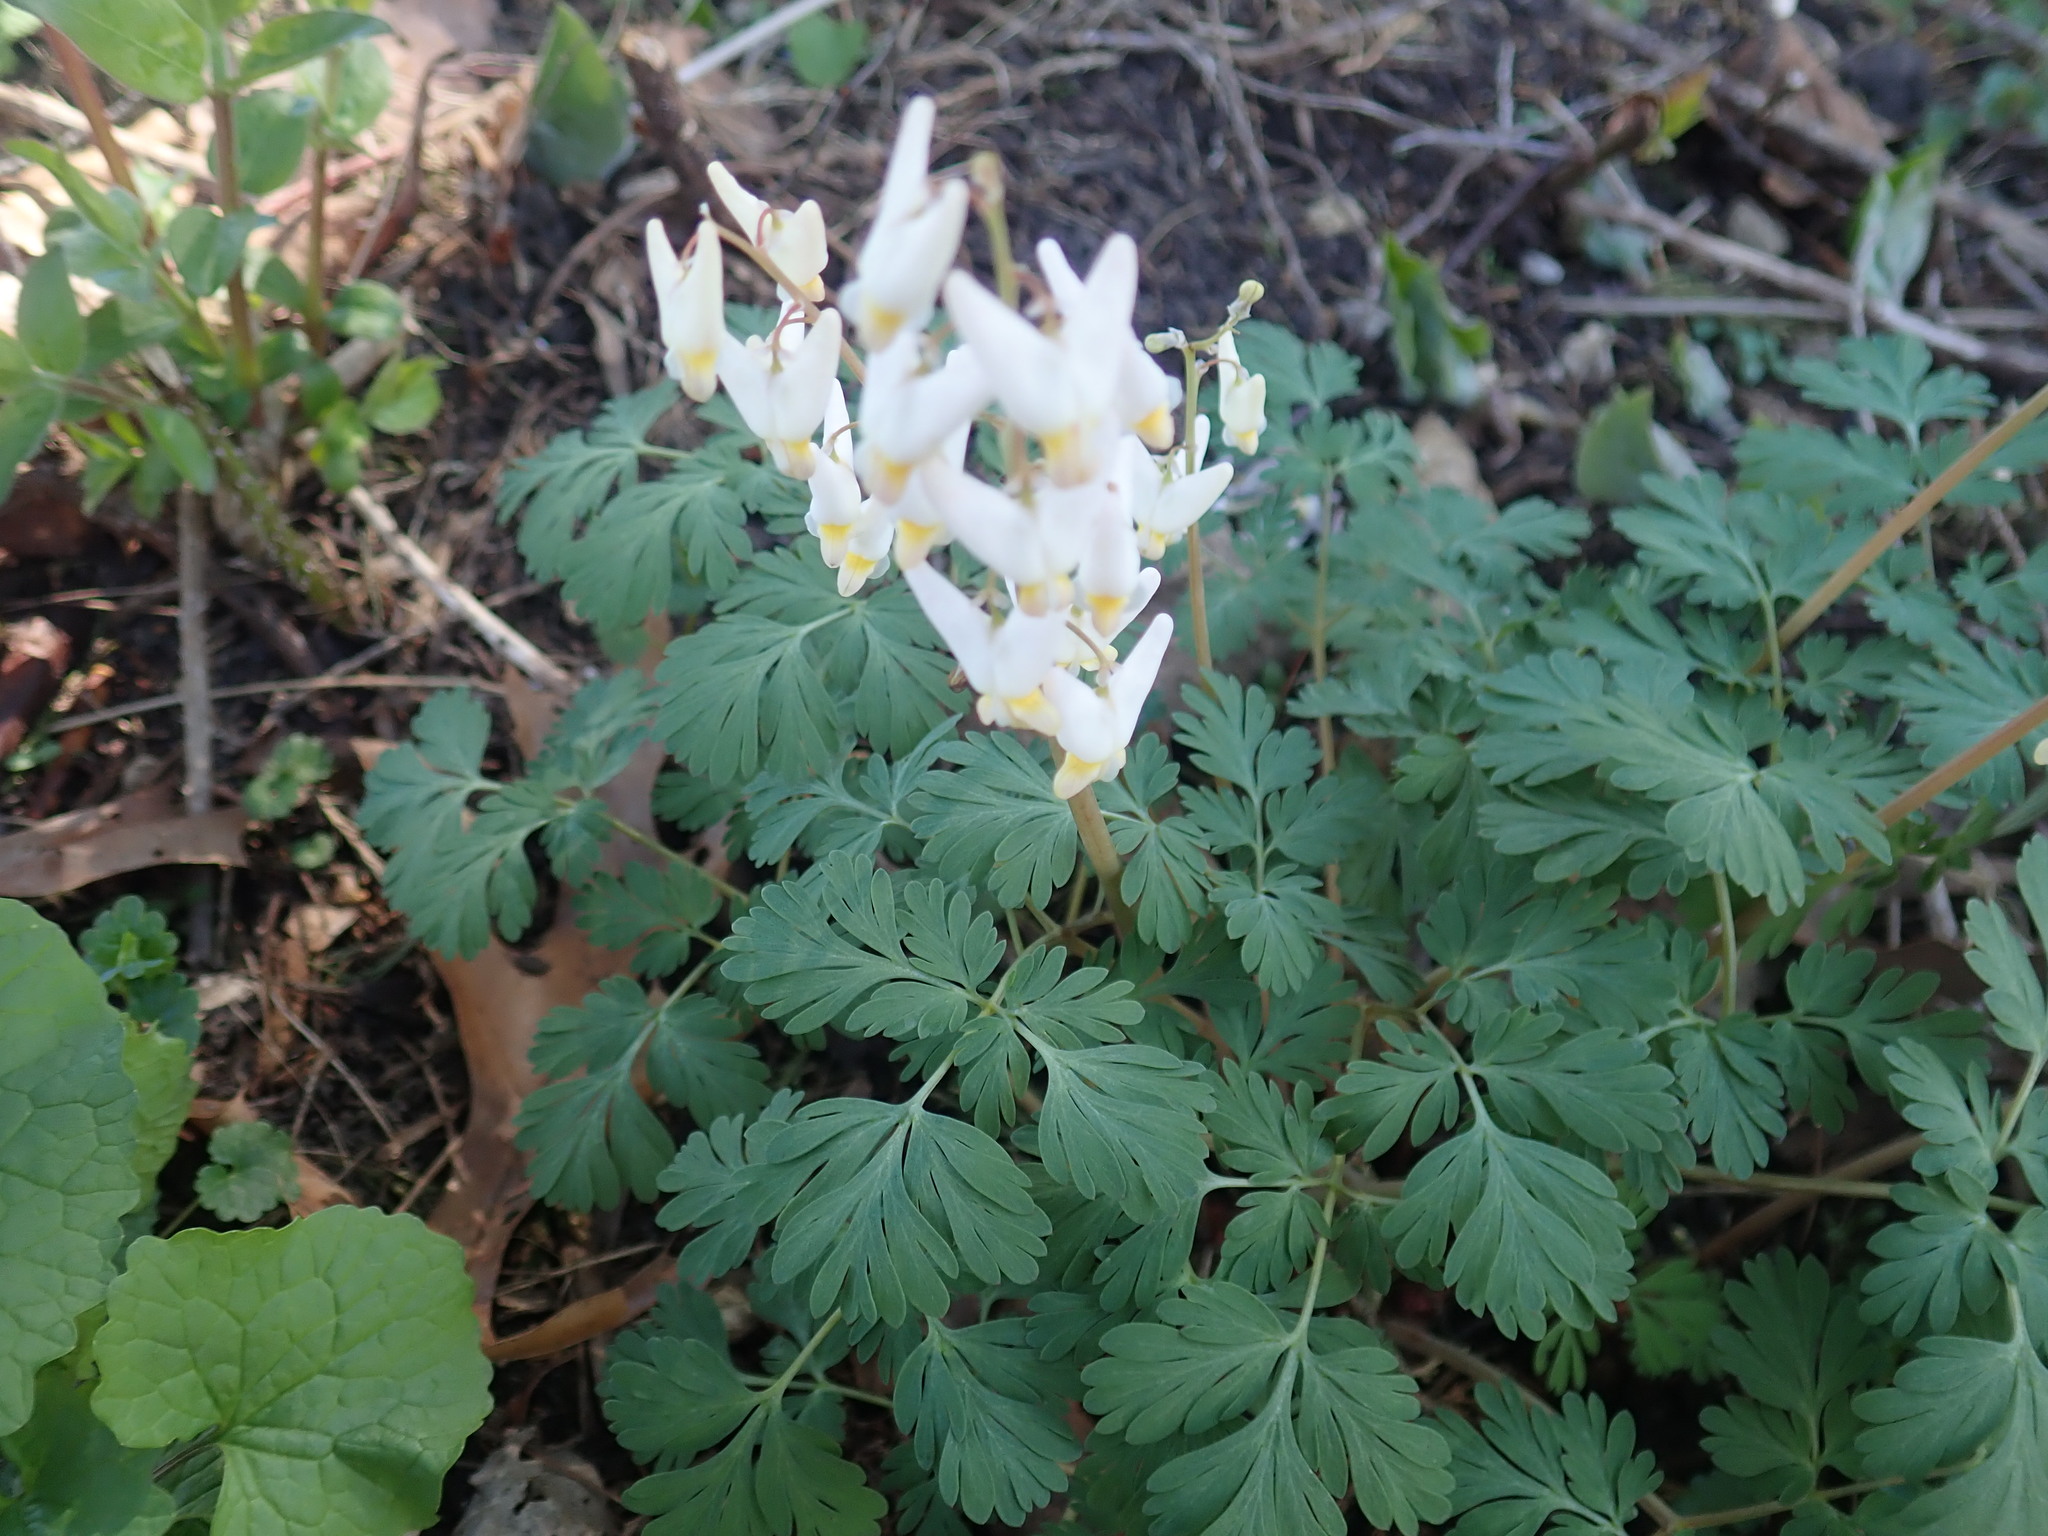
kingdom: Plantae
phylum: Tracheophyta
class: Magnoliopsida
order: Ranunculales
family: Papaveraceae
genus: Dicentra
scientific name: Dicentra cucullaria
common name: Dutchman's breeches
